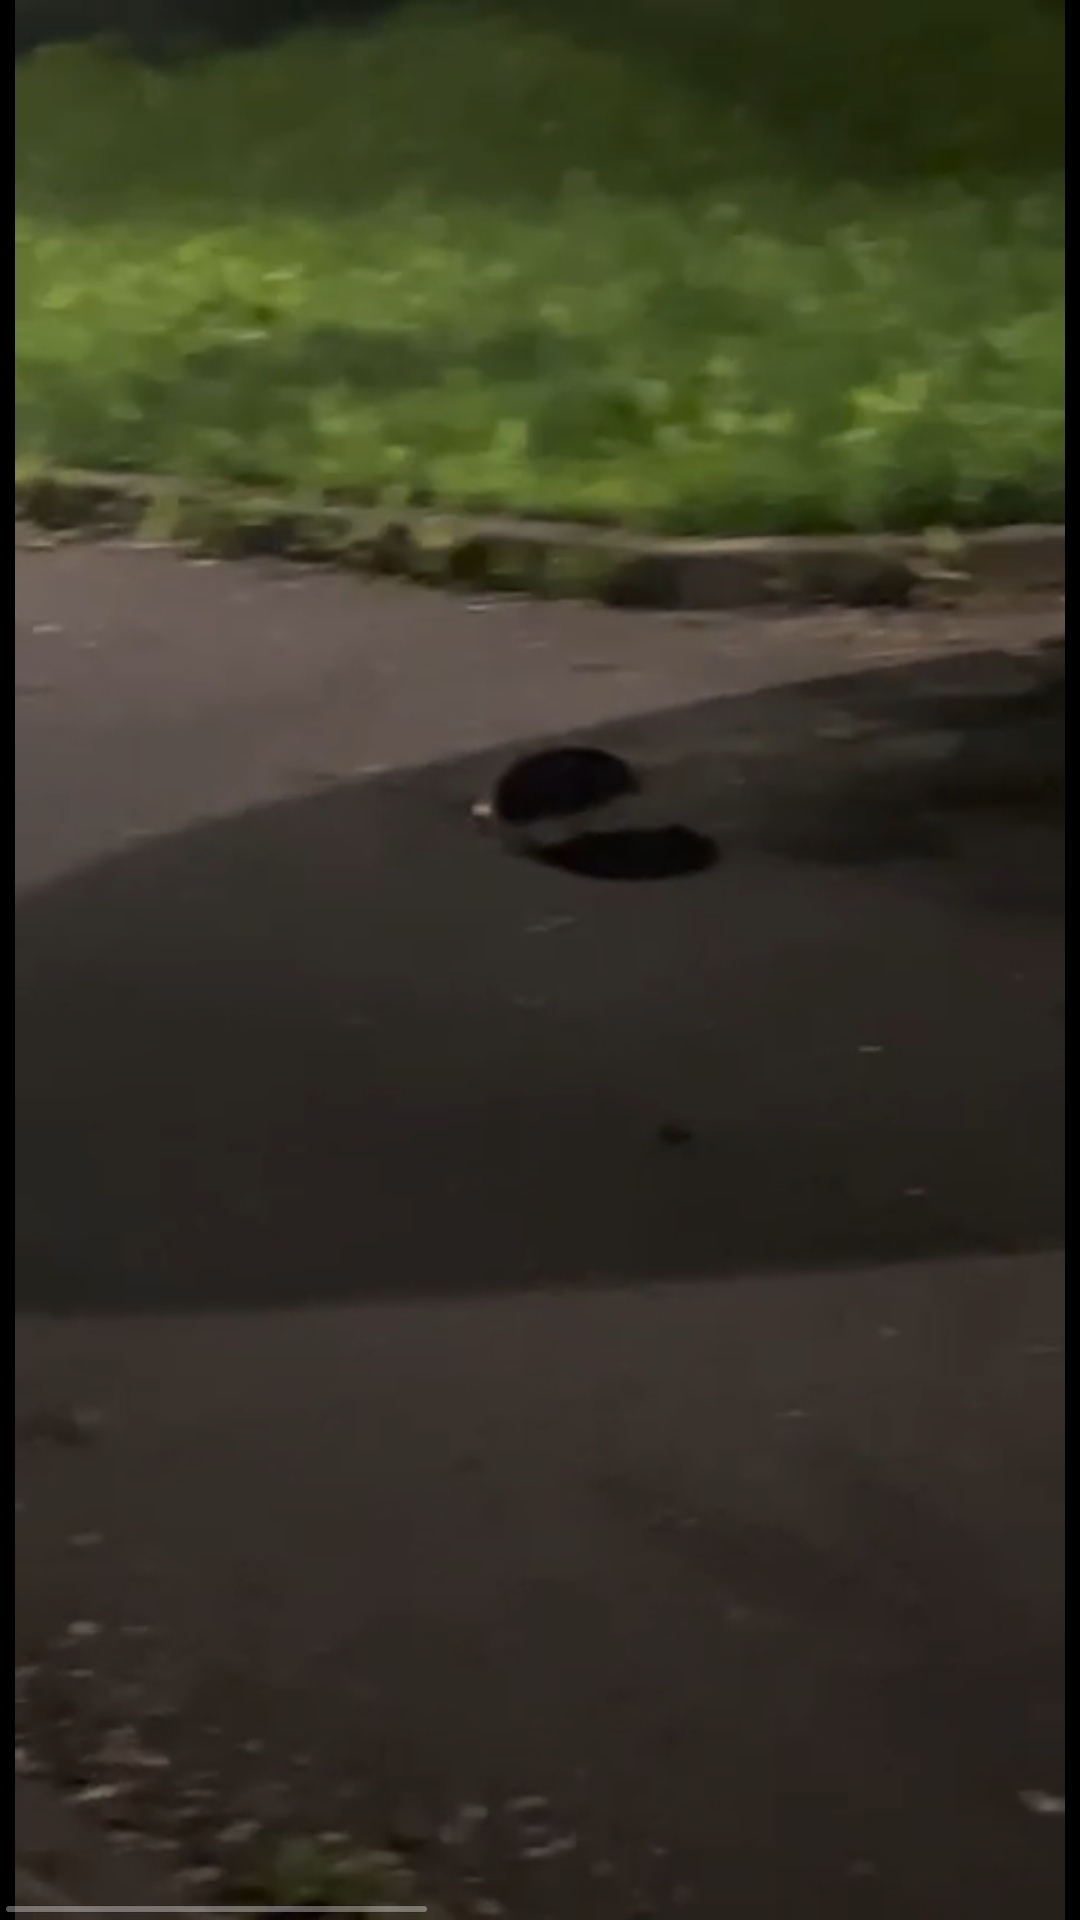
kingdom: Animalia
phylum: Chordata
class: Mammalia
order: Erinaceomorpha
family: Erinaceidae
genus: Erinaceus
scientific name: Erinaceus europaeus
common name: West european hedgehog
